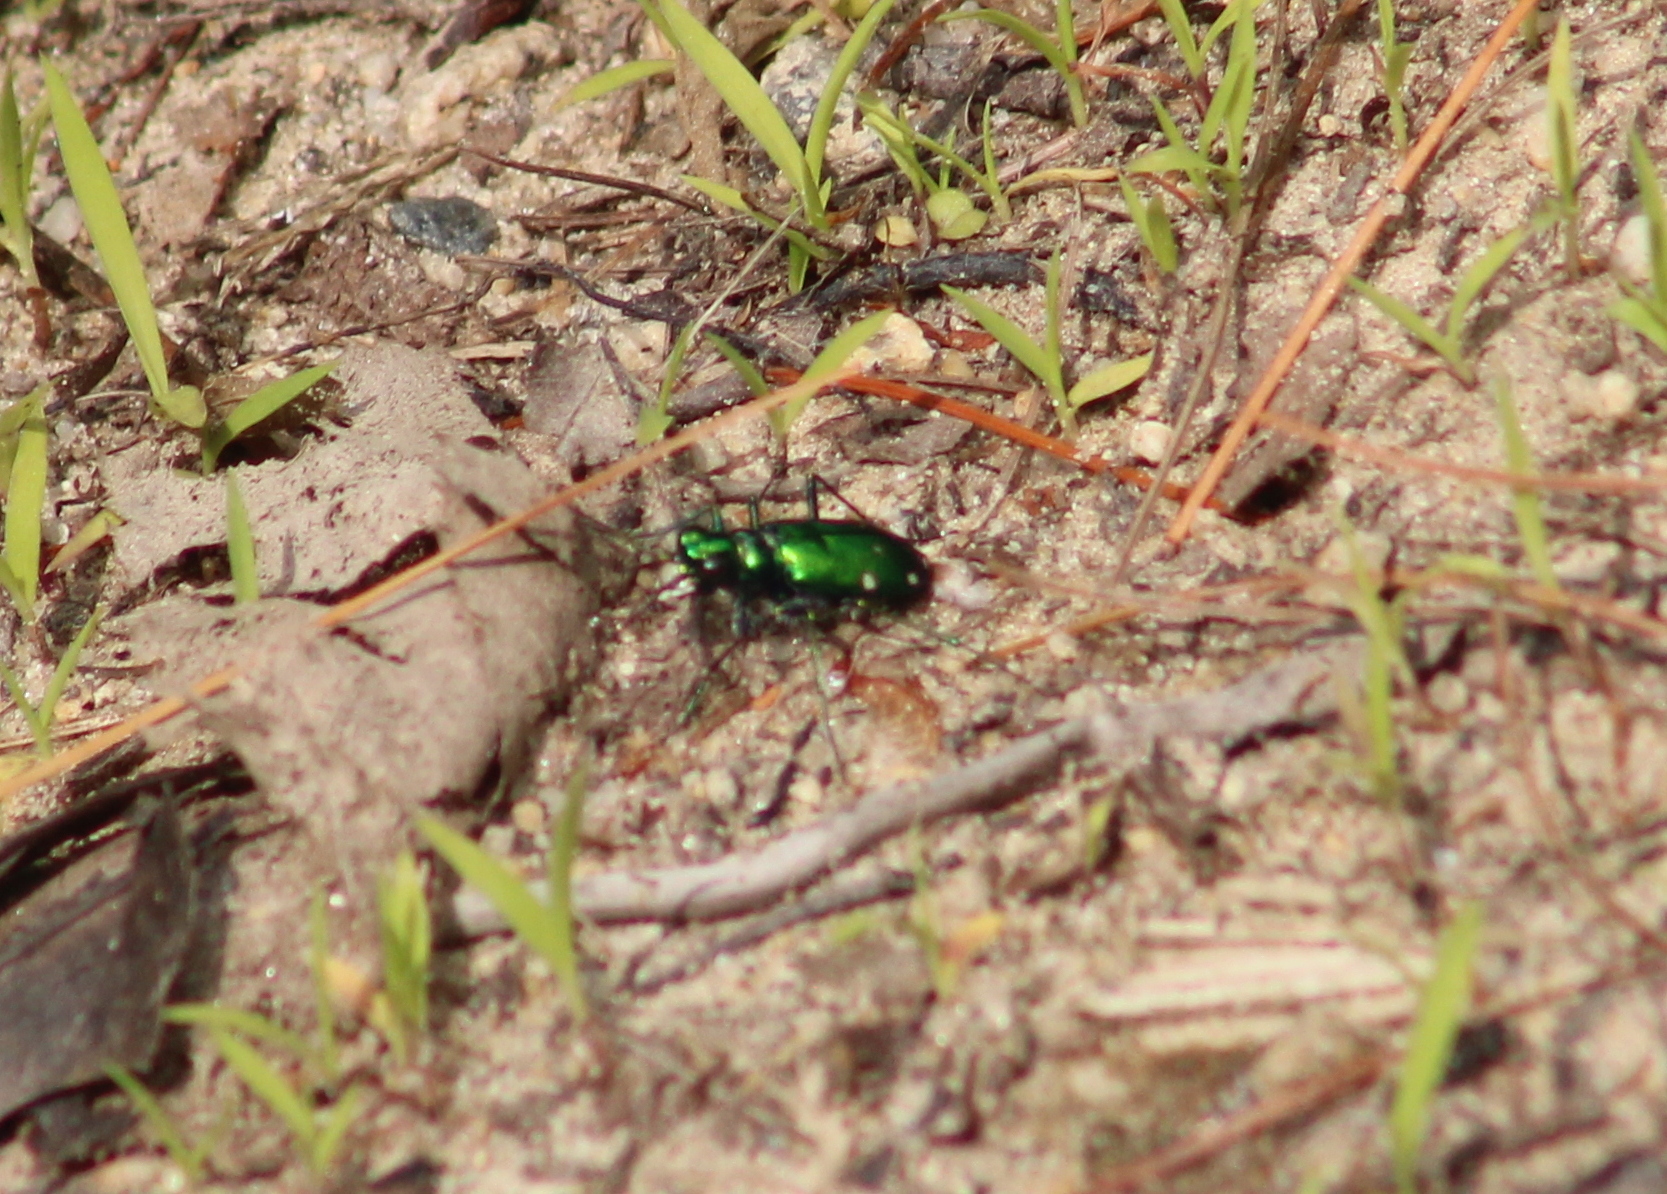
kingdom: Animalia
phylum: Arthropoda
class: Insecta
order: Coleoptera
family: Carabidae
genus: Cicindela
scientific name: Cicindela sexguttata
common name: Six-spotted tiger beetle
